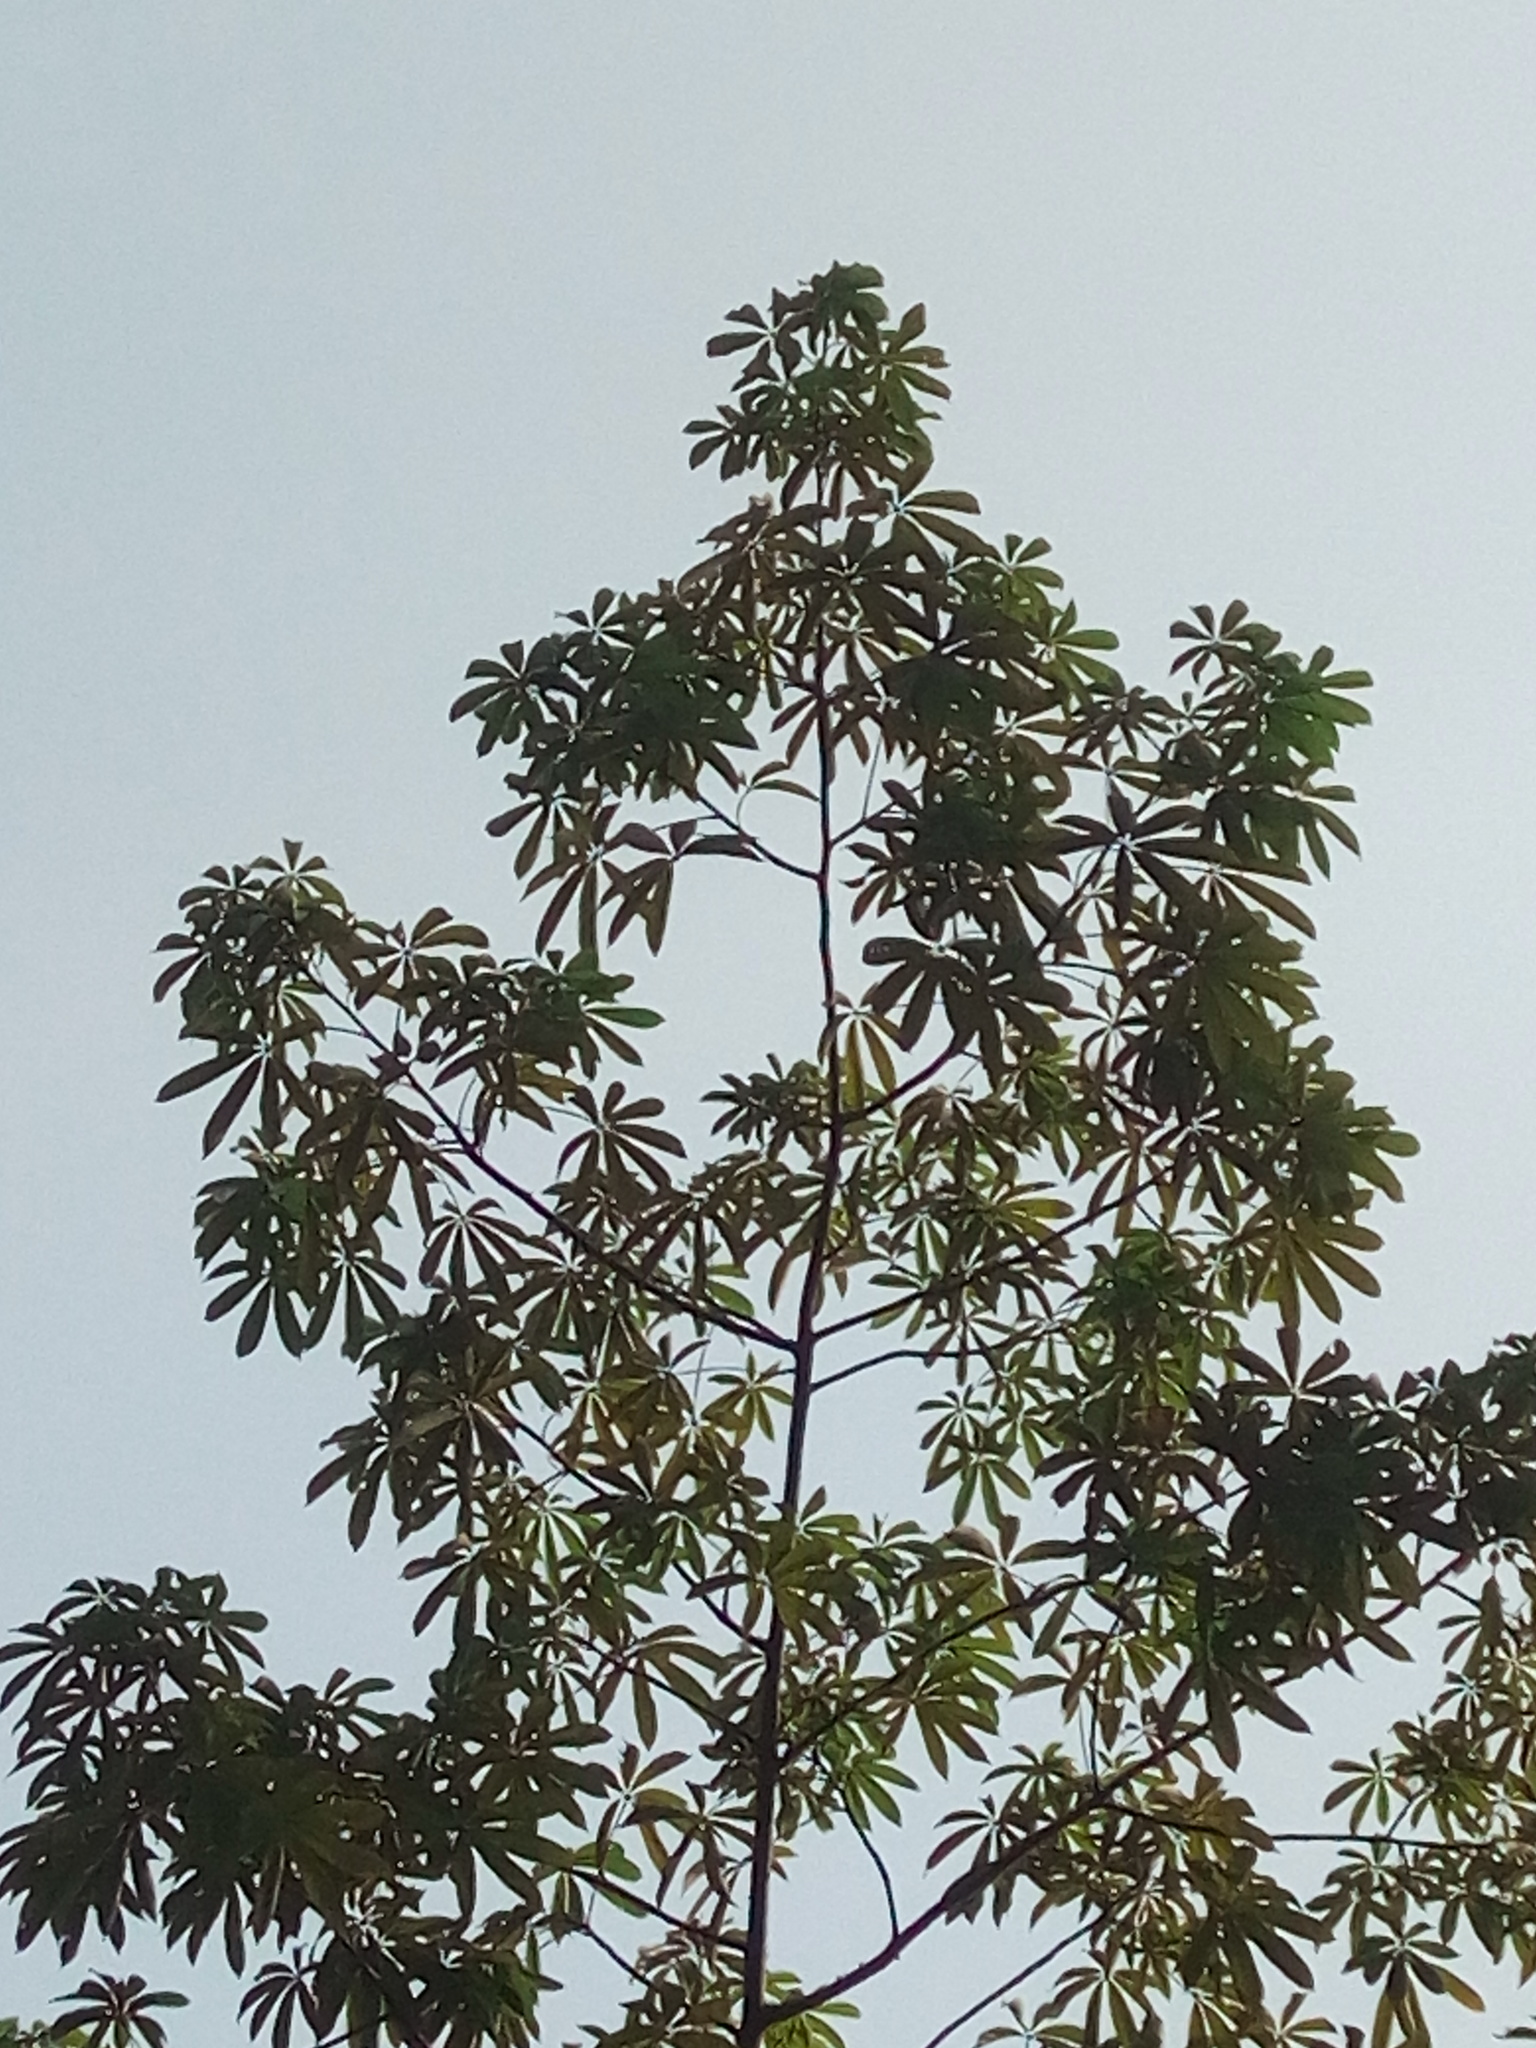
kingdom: Plantae
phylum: Tracheophyta
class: Magnoliopsida
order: Malvales
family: Malvaceae
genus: Ceiba
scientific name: Ceiba pentandra
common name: Kapok
